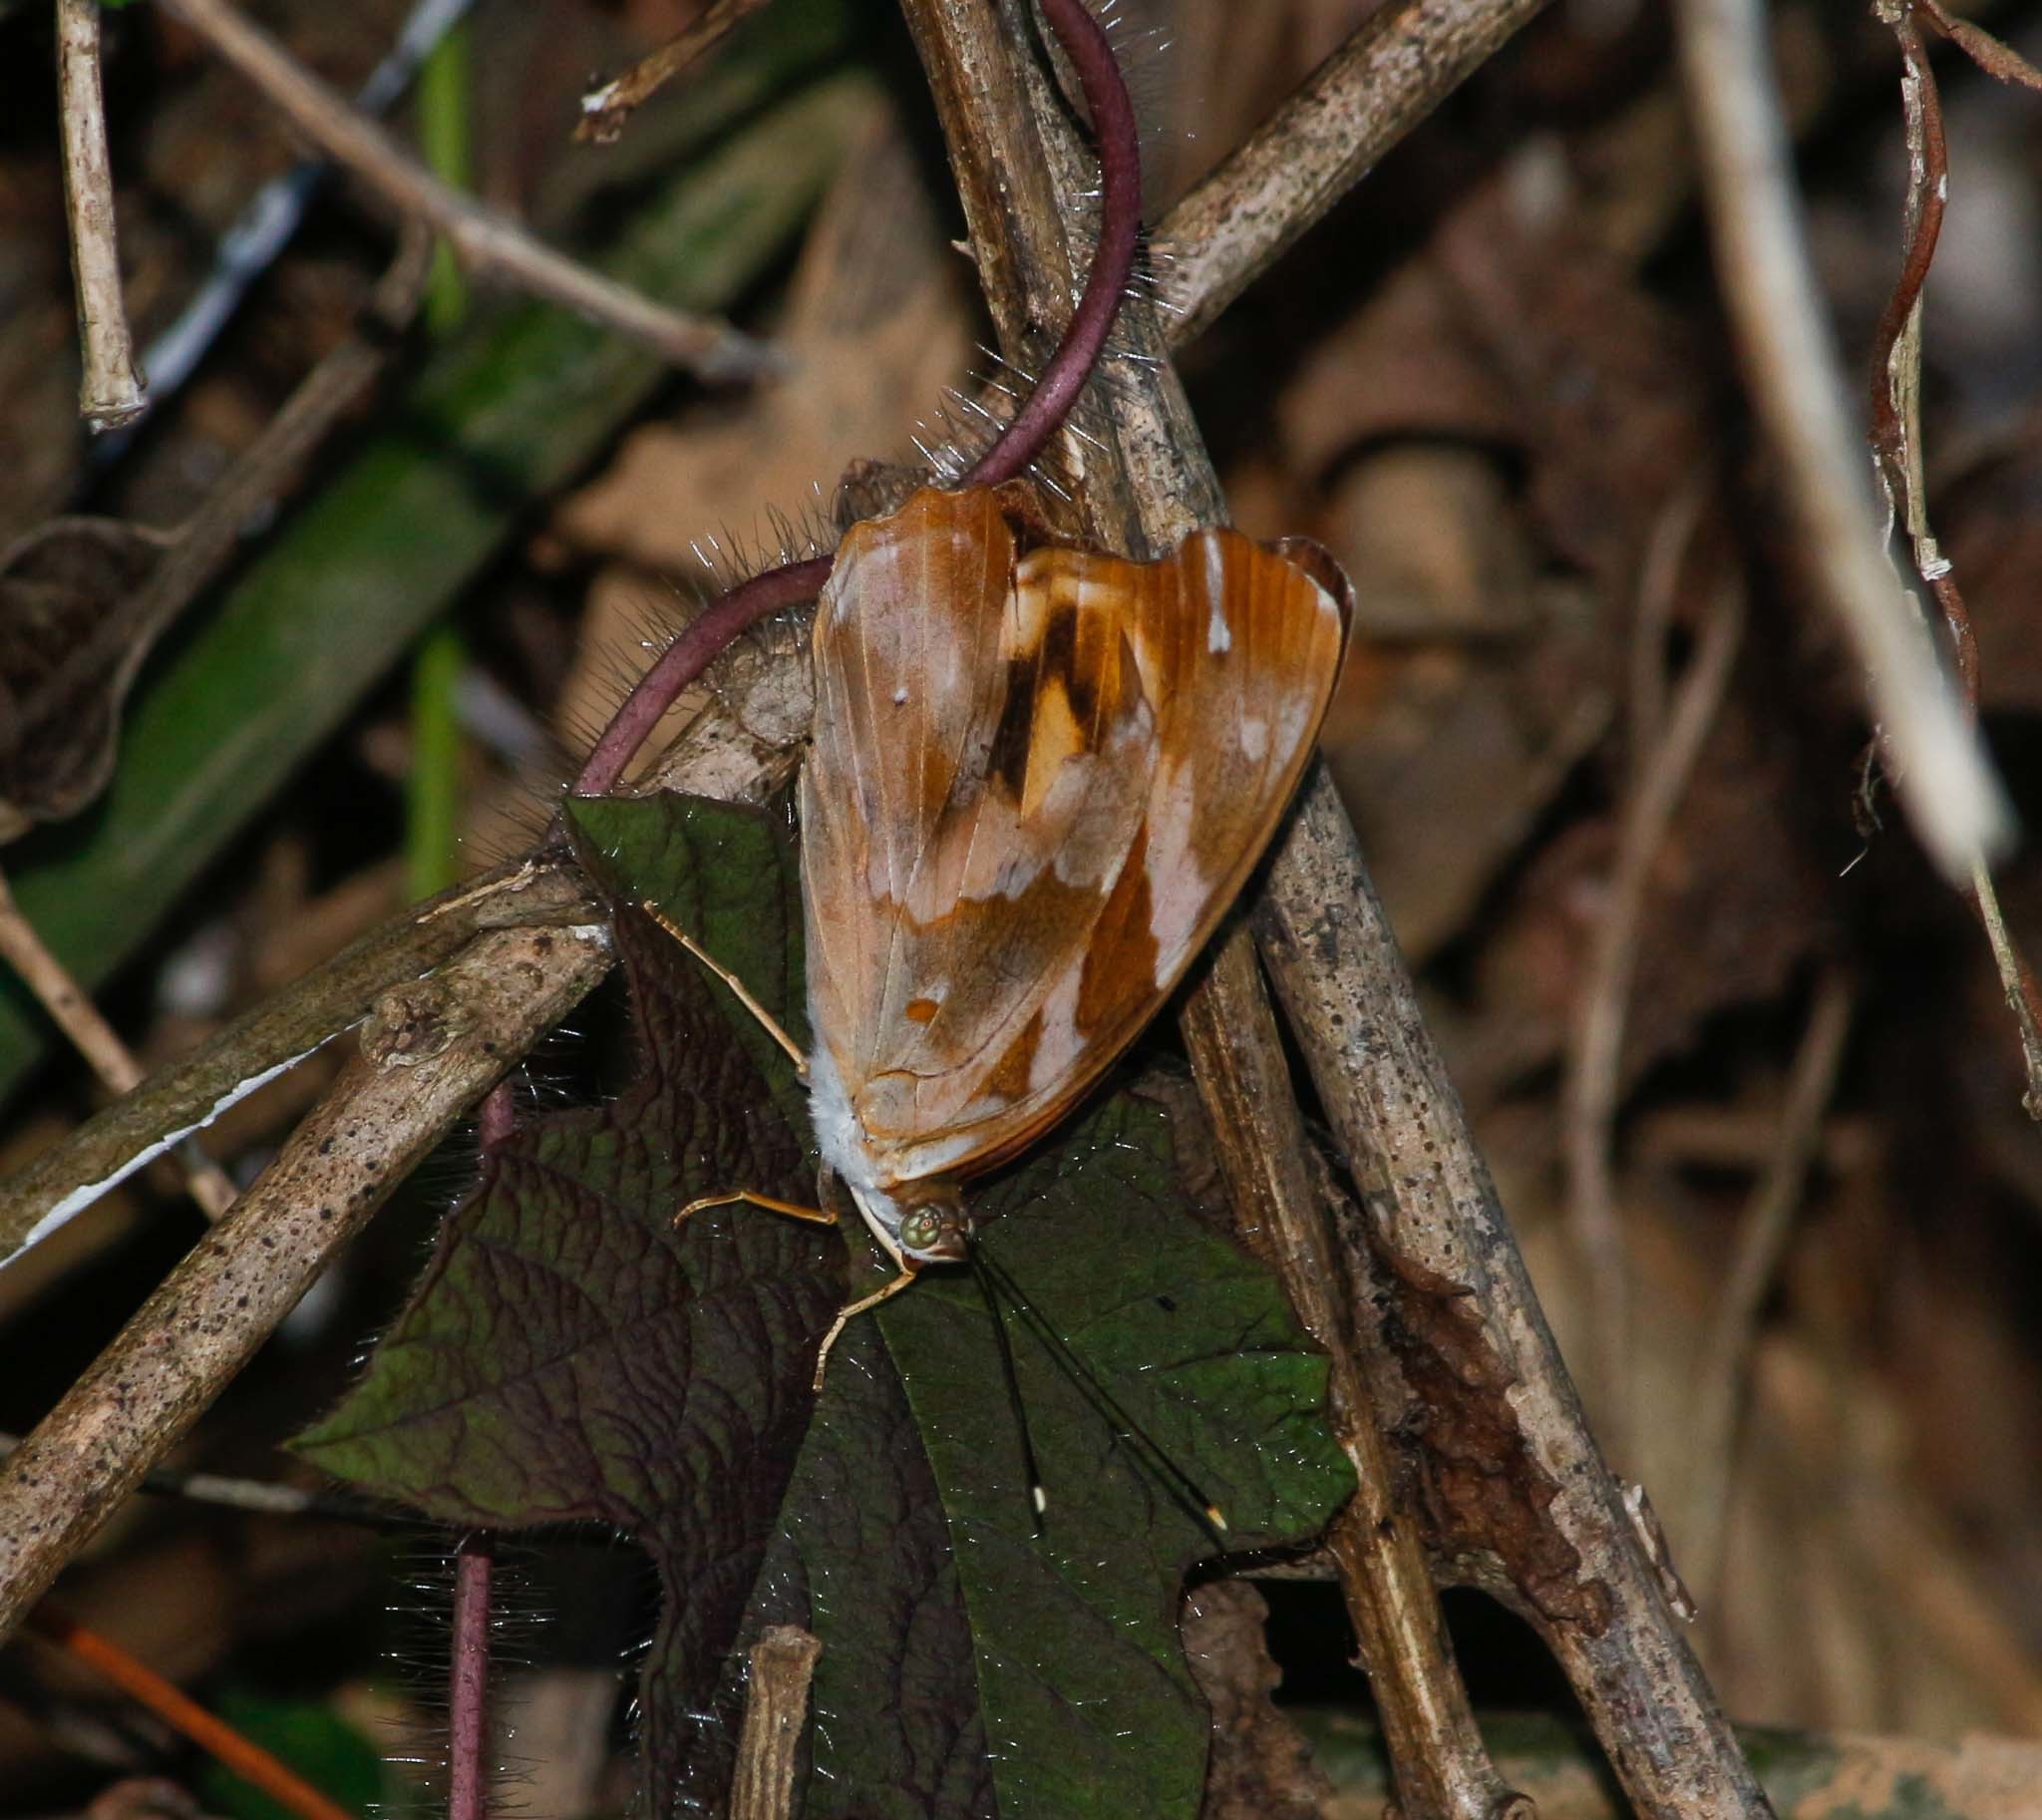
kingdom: Animalia
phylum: Arthropoda
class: Insecta
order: Lepidoptera
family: Nymphalidae
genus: Herona
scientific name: Herona marathus
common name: Yellow pasha
